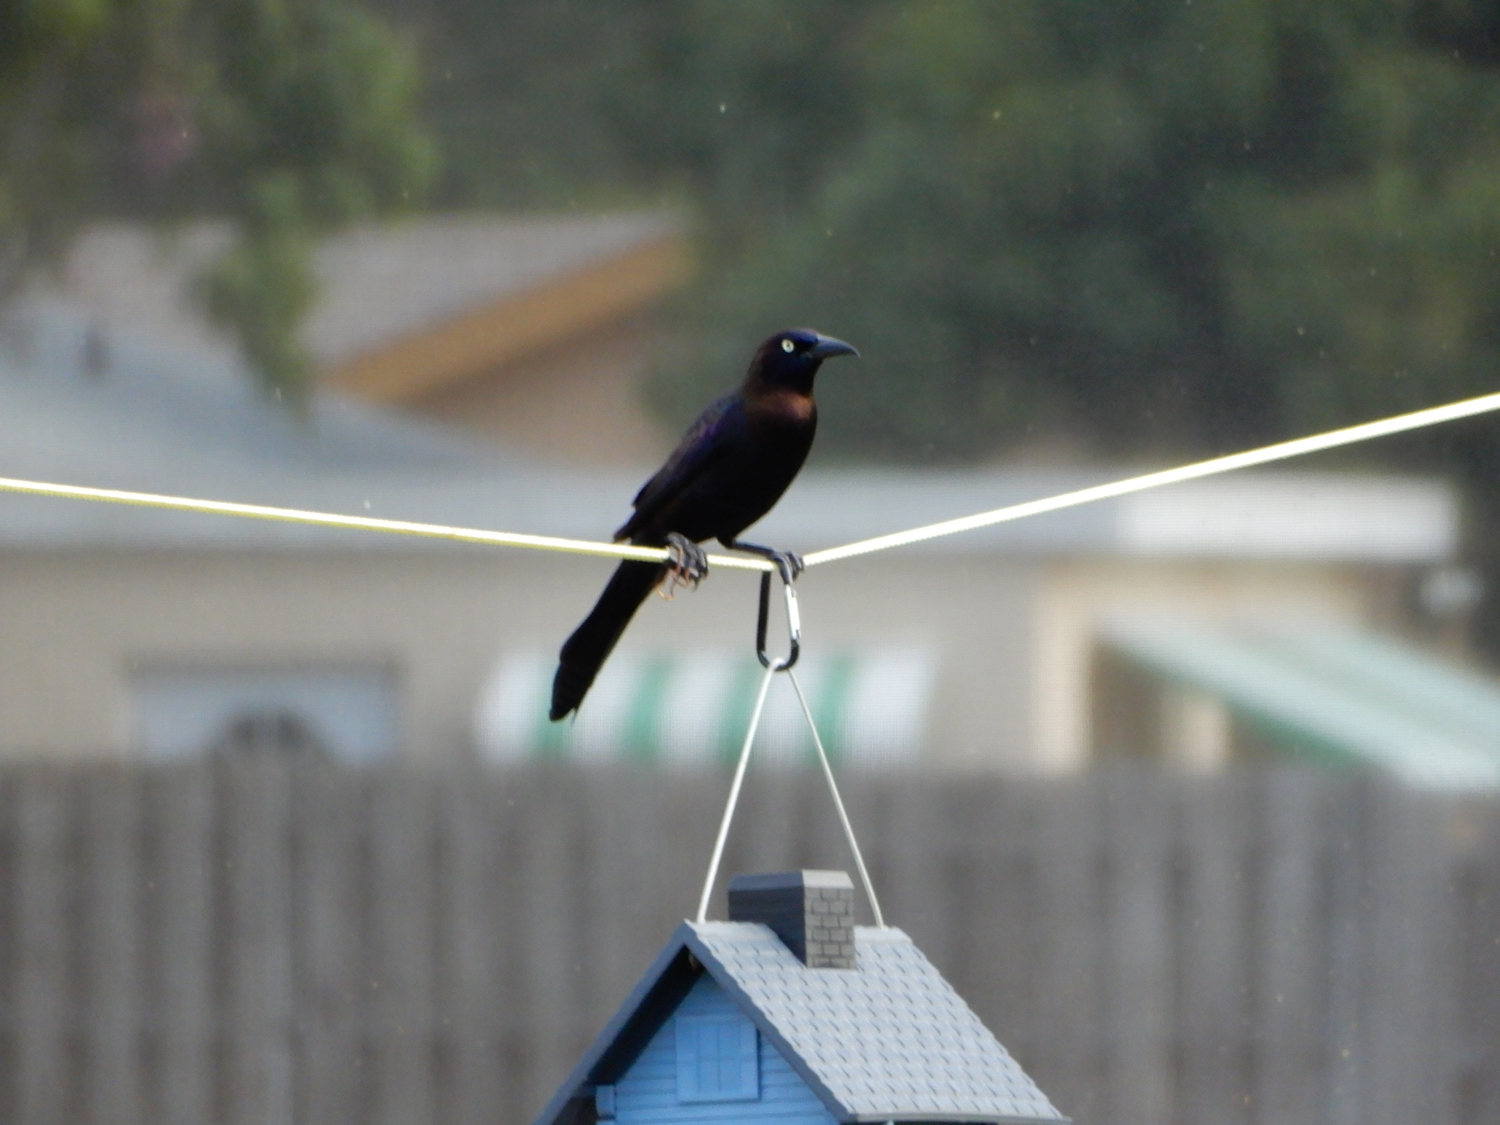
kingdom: Animalia
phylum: Chordata
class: Aves
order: Passeriformes
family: Icteridae
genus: Quiscalus
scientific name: Quiscalus quiscula
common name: Common grackle
